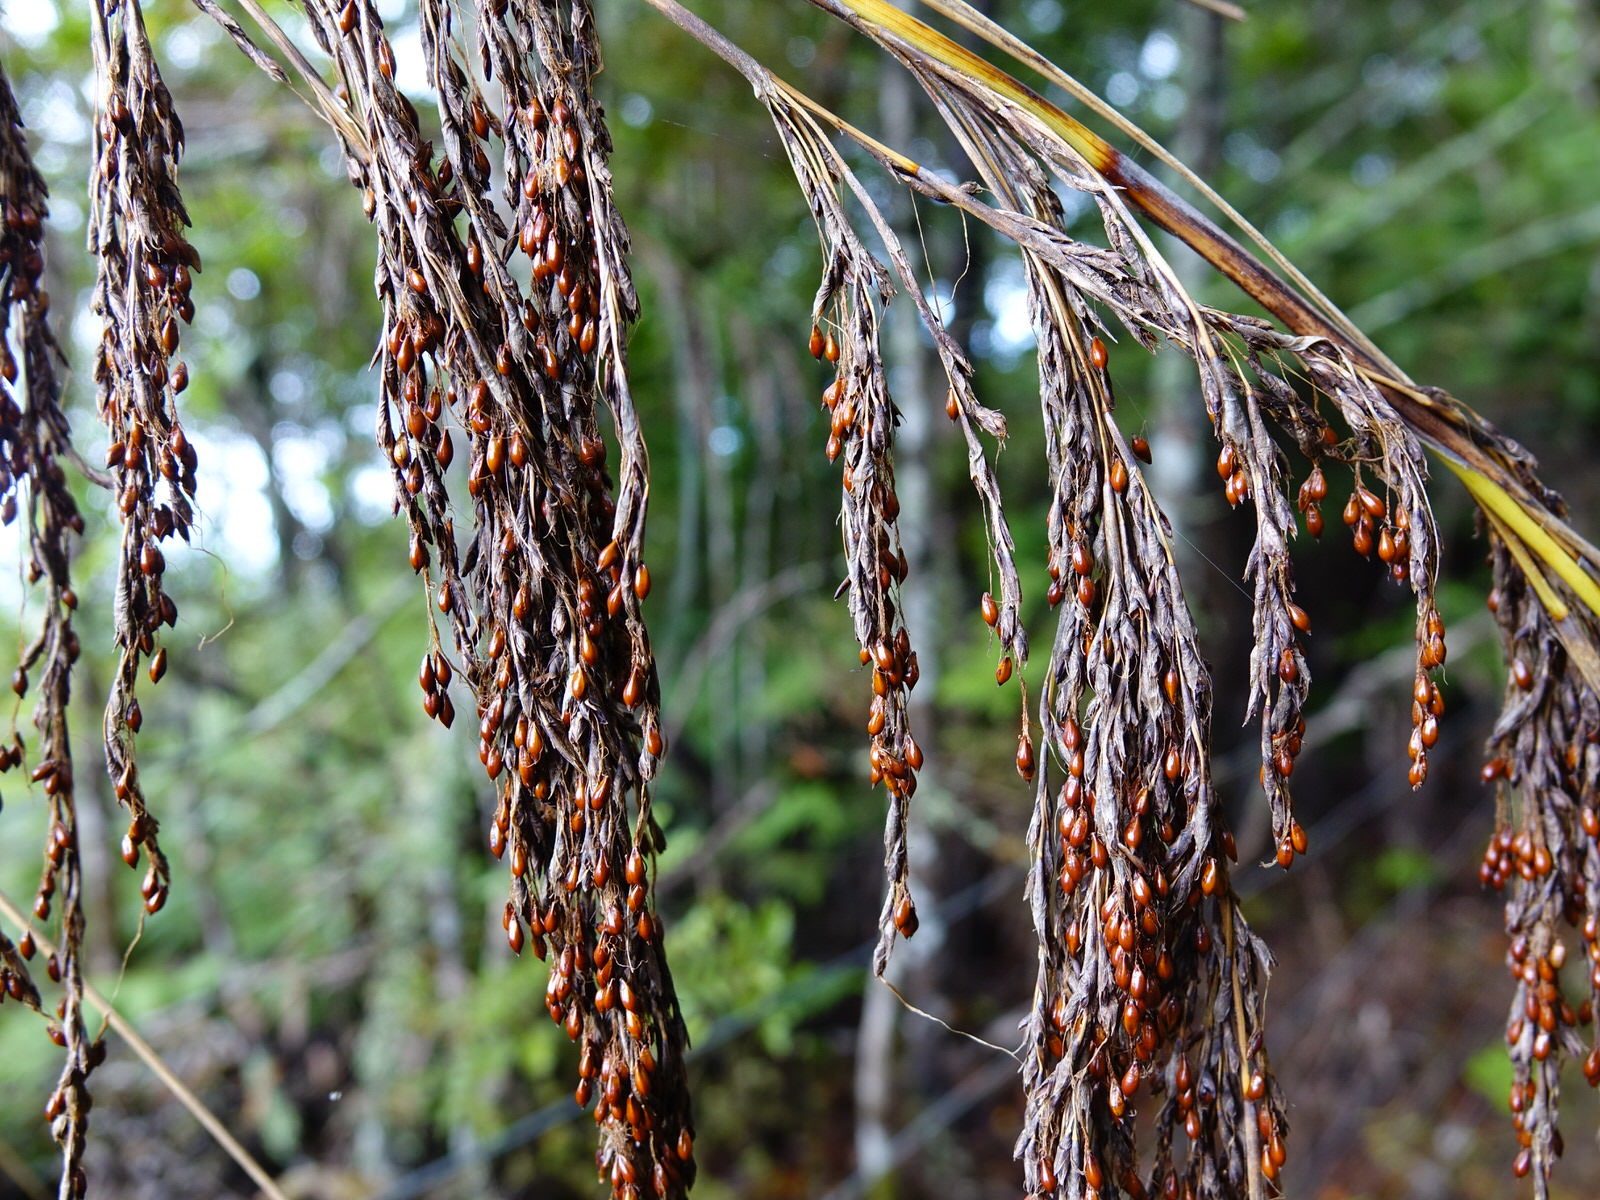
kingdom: Plantae
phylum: Tracheophyta
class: Liliopsida
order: Poales
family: Cyperaceae
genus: Gahnia
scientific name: Gahnia setifolia
